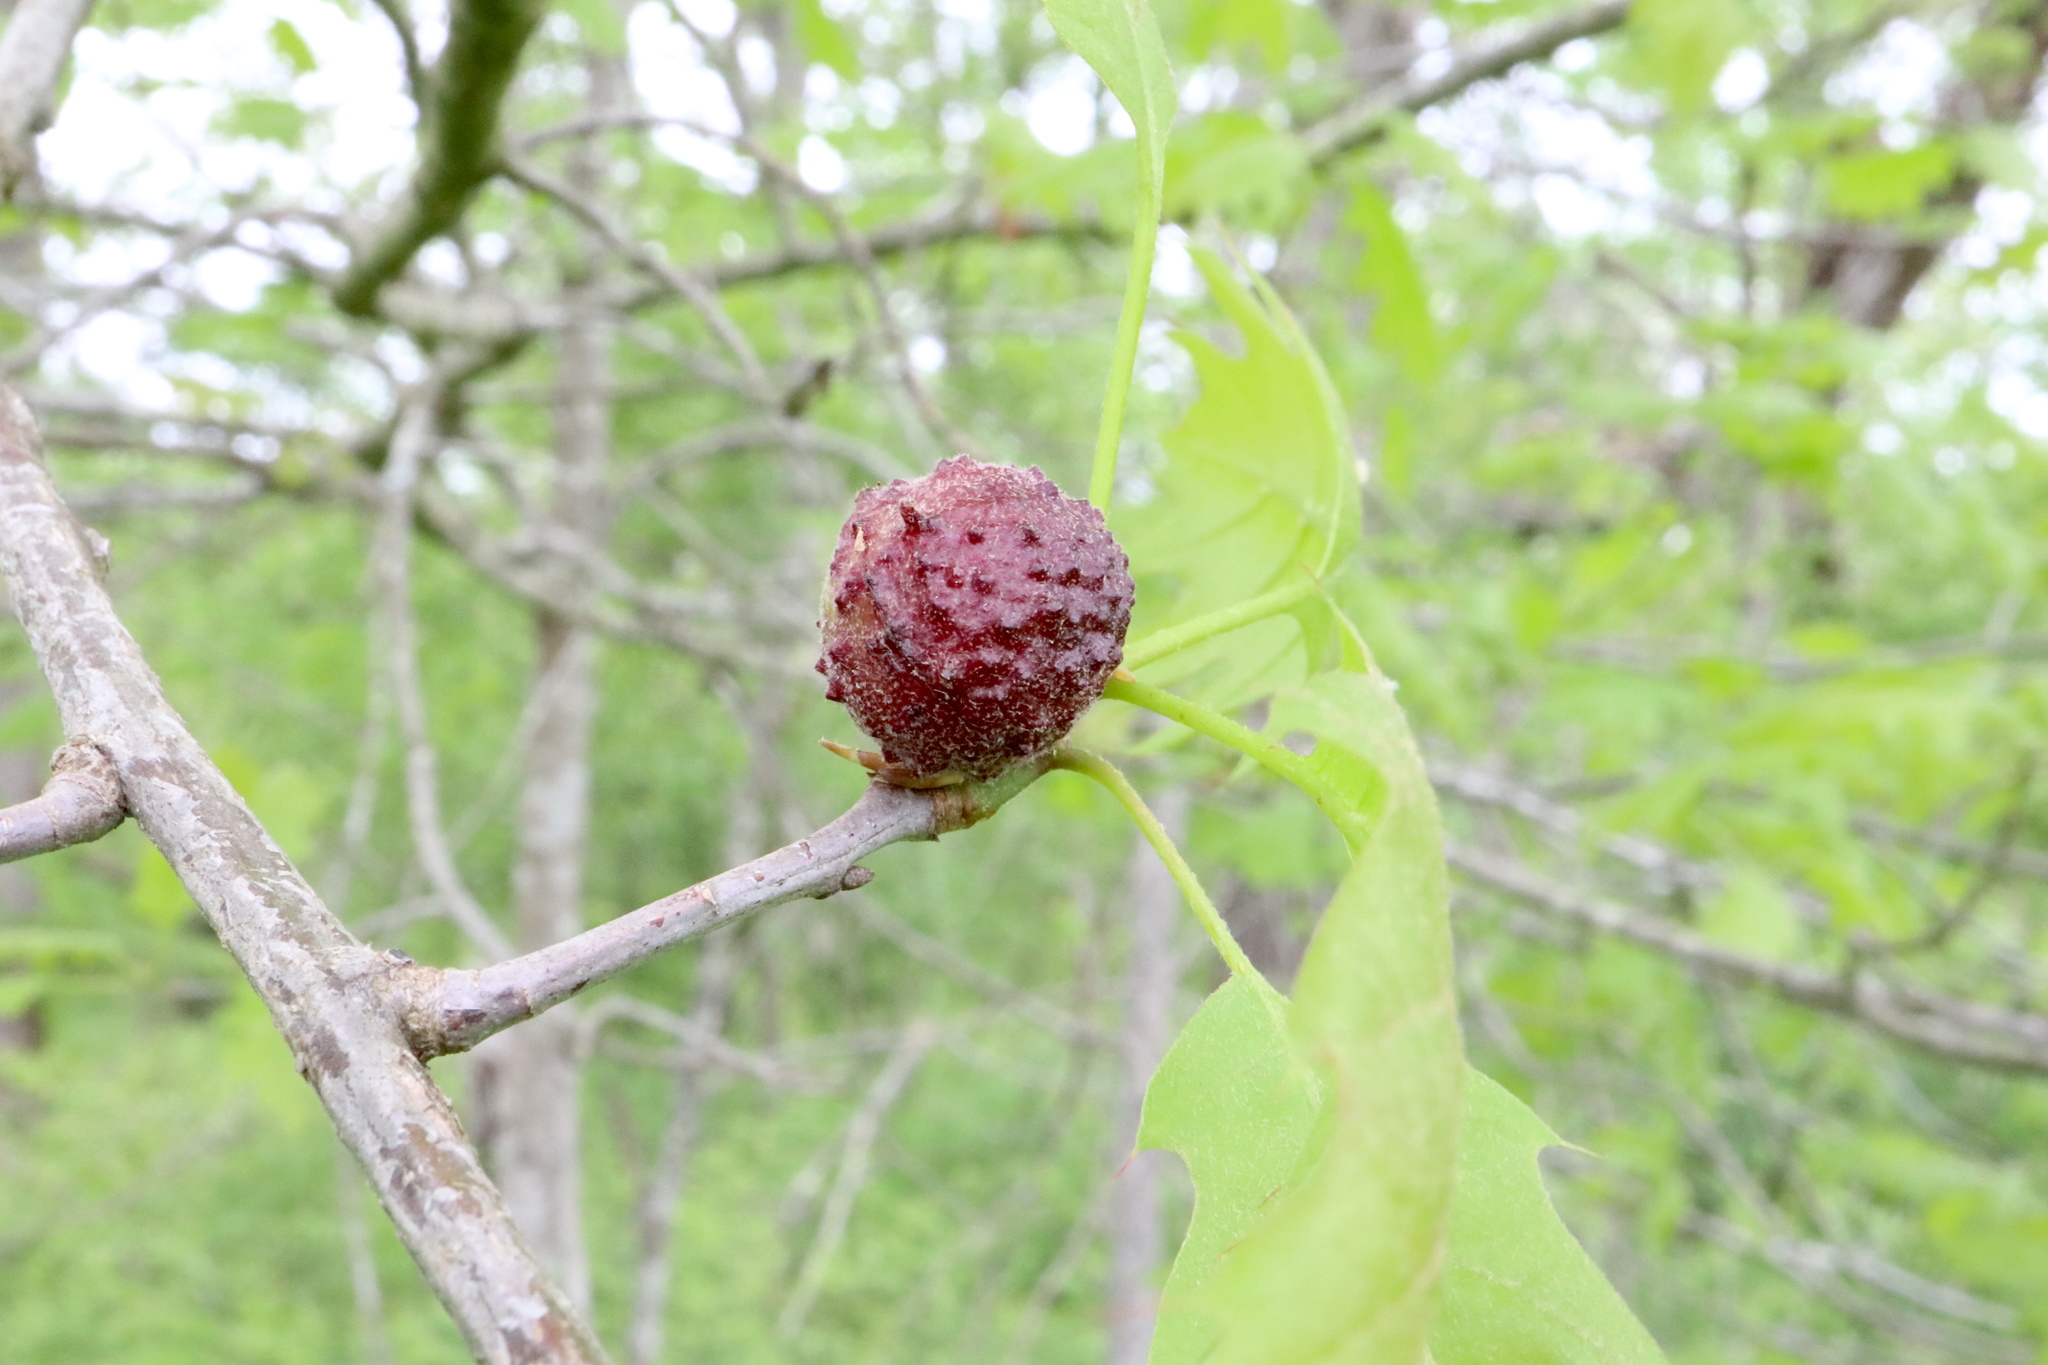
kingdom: Animalia
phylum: Arthropoda
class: Insecta
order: Hymenoptera
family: Cynipidae
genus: Amphibolips
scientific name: Amphibolips
